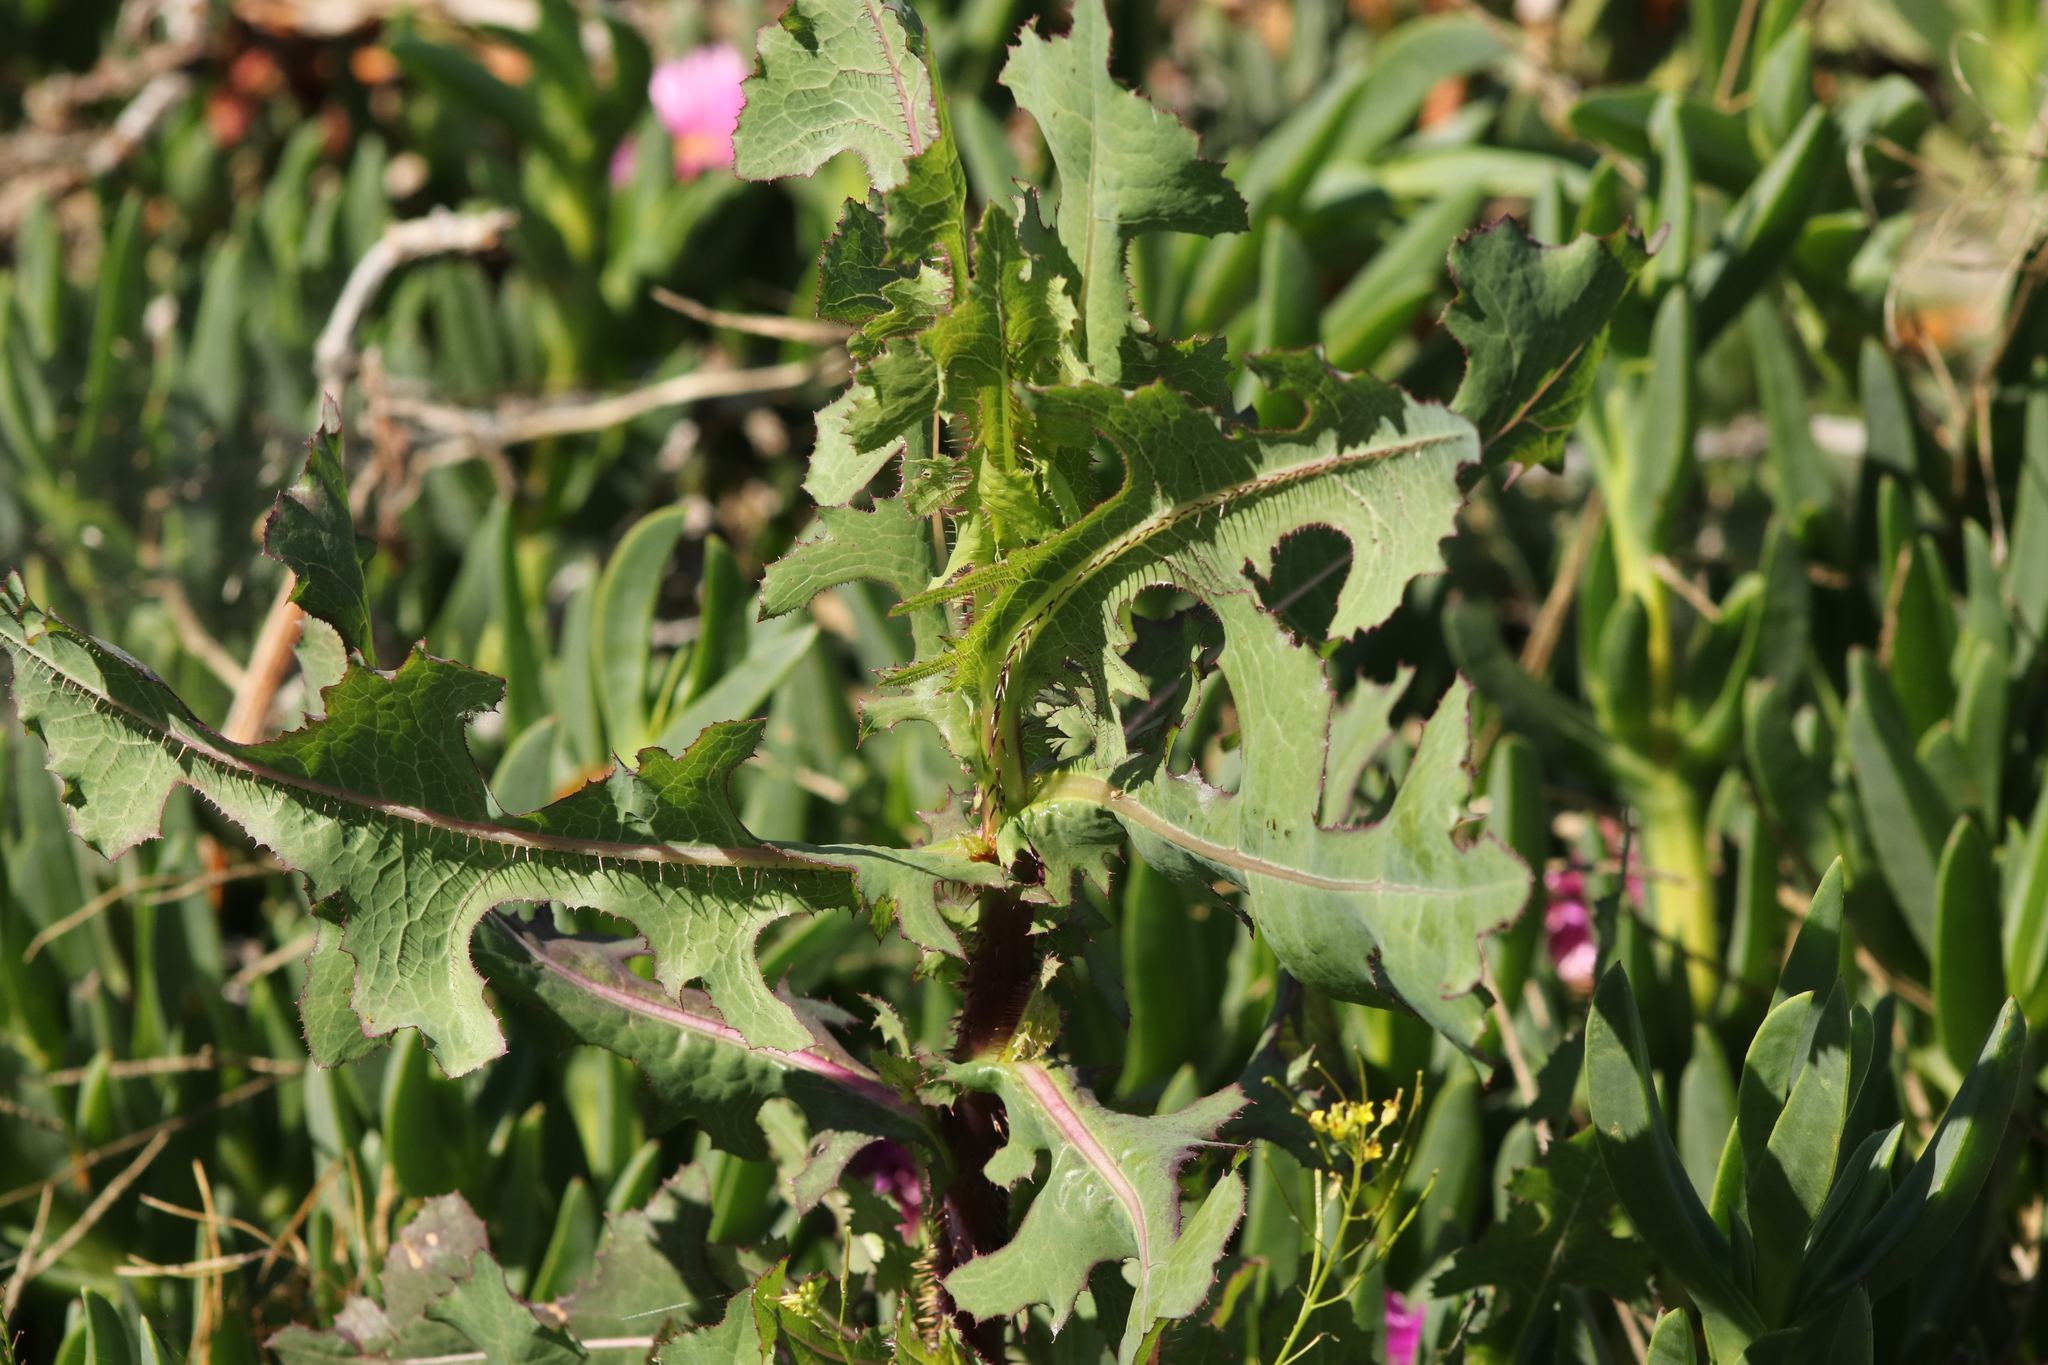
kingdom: Plantae
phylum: Tracheophyta
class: Magnoliopsida
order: Asterales
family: Asteraceae
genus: Lactuca
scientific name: Lactuca serriola
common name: Prickly lettuce
